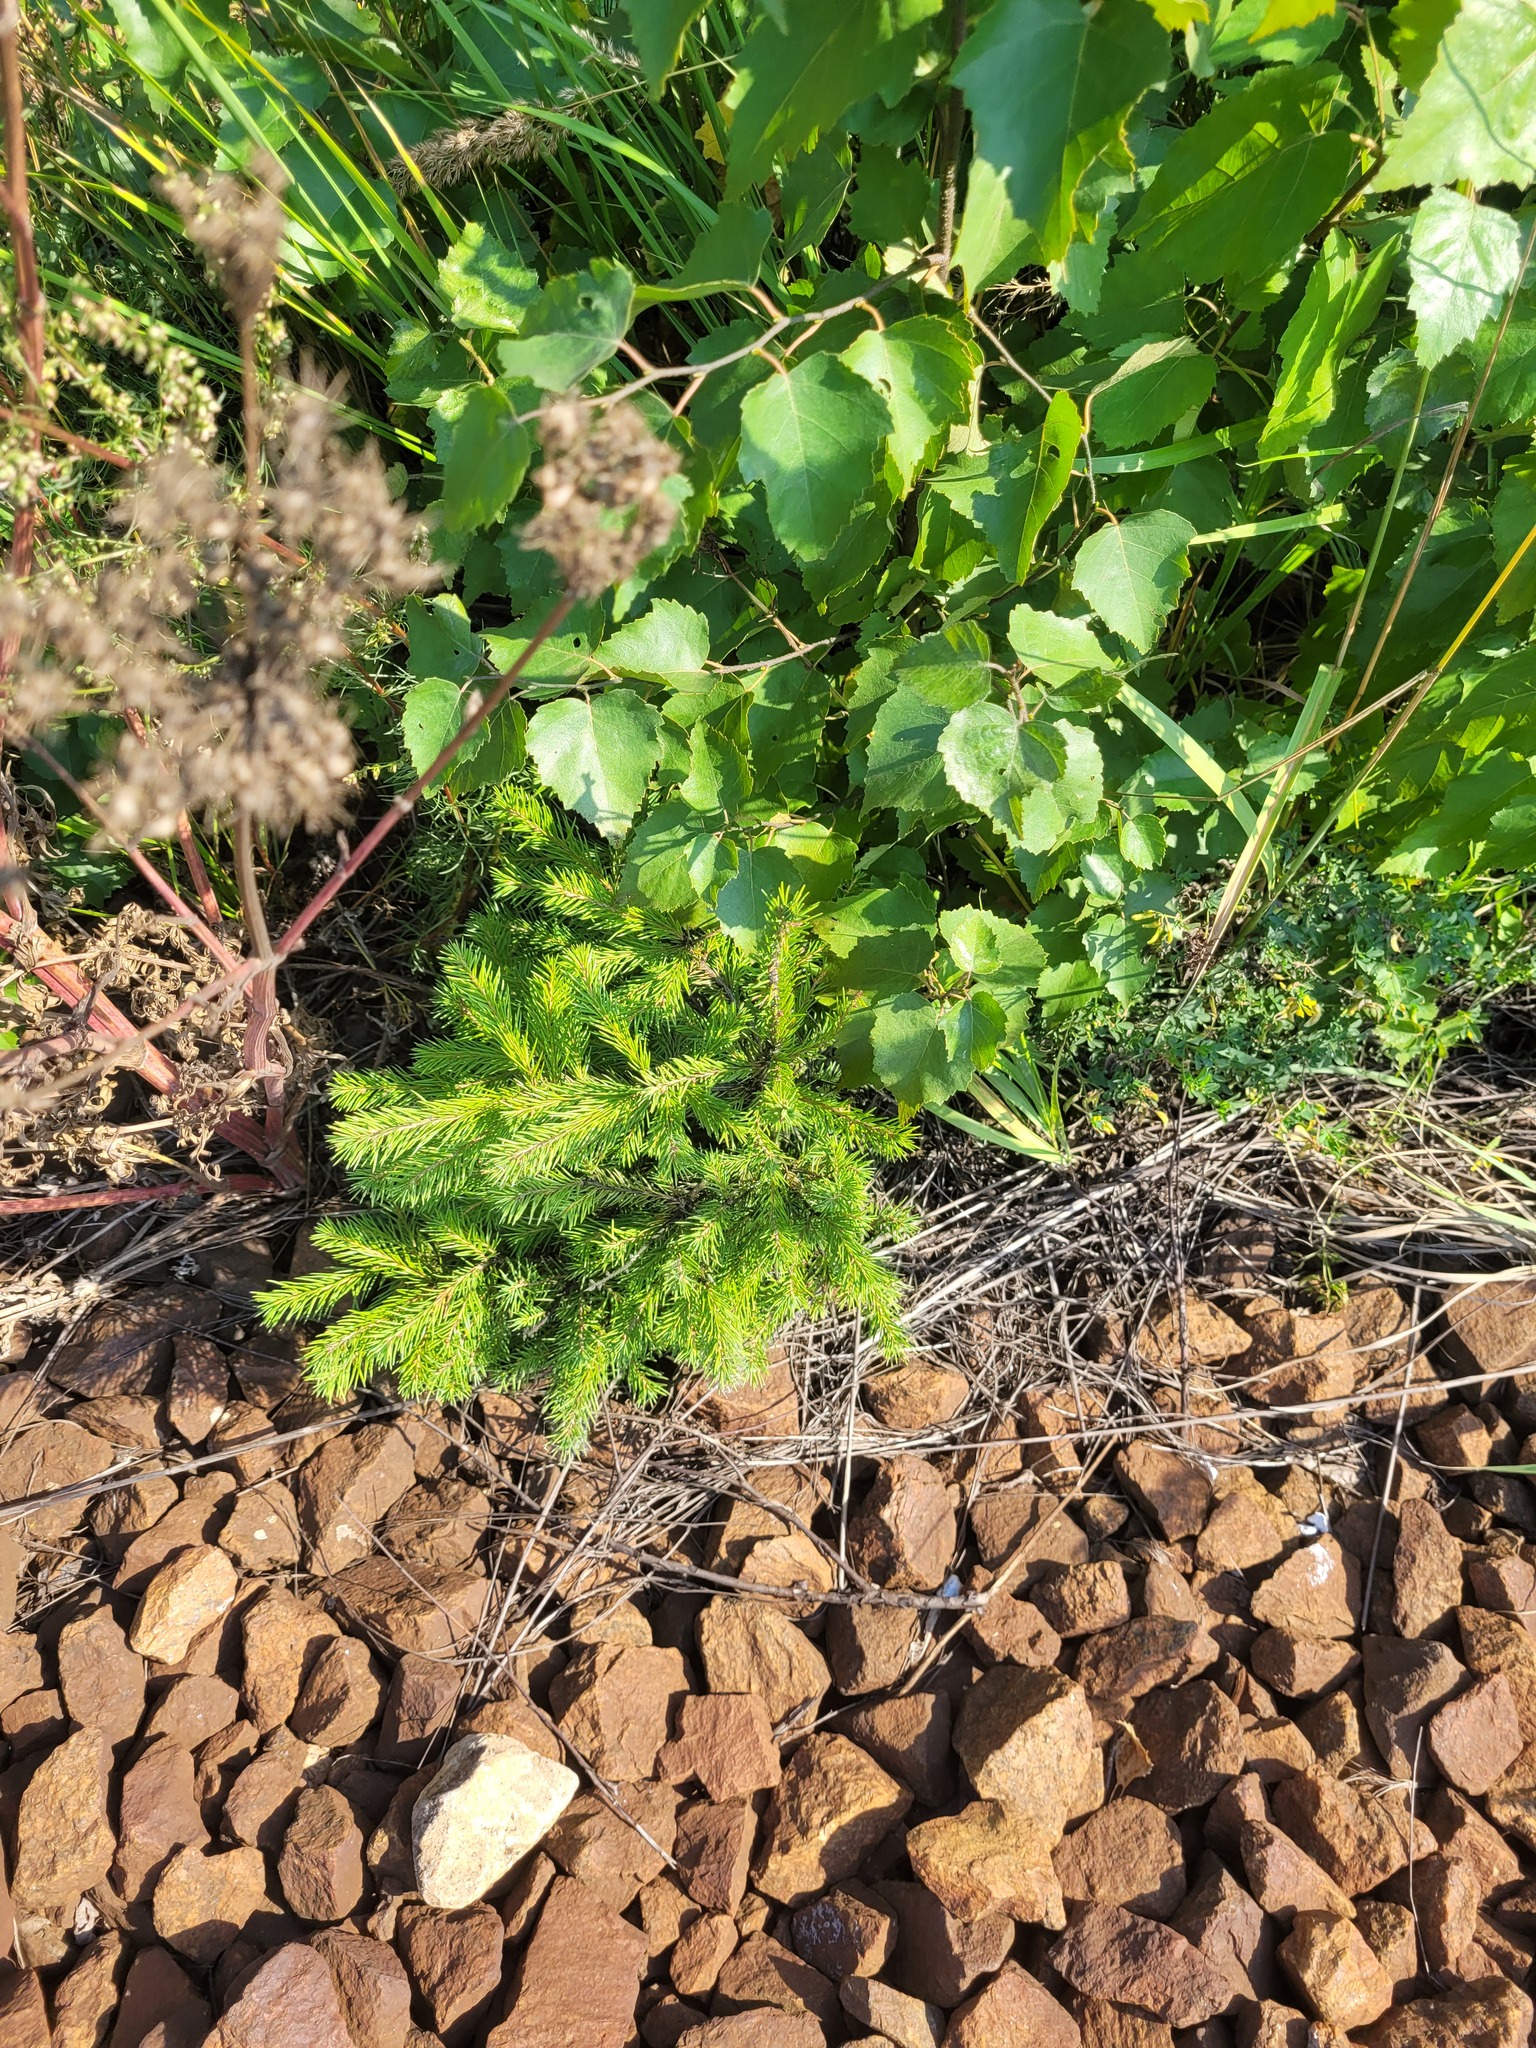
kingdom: Plantae
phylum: Tracheophyta
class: Pinopsida
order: Pinales
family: Pinaceae
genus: Picea
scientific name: Picea abies
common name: Norway spruce
